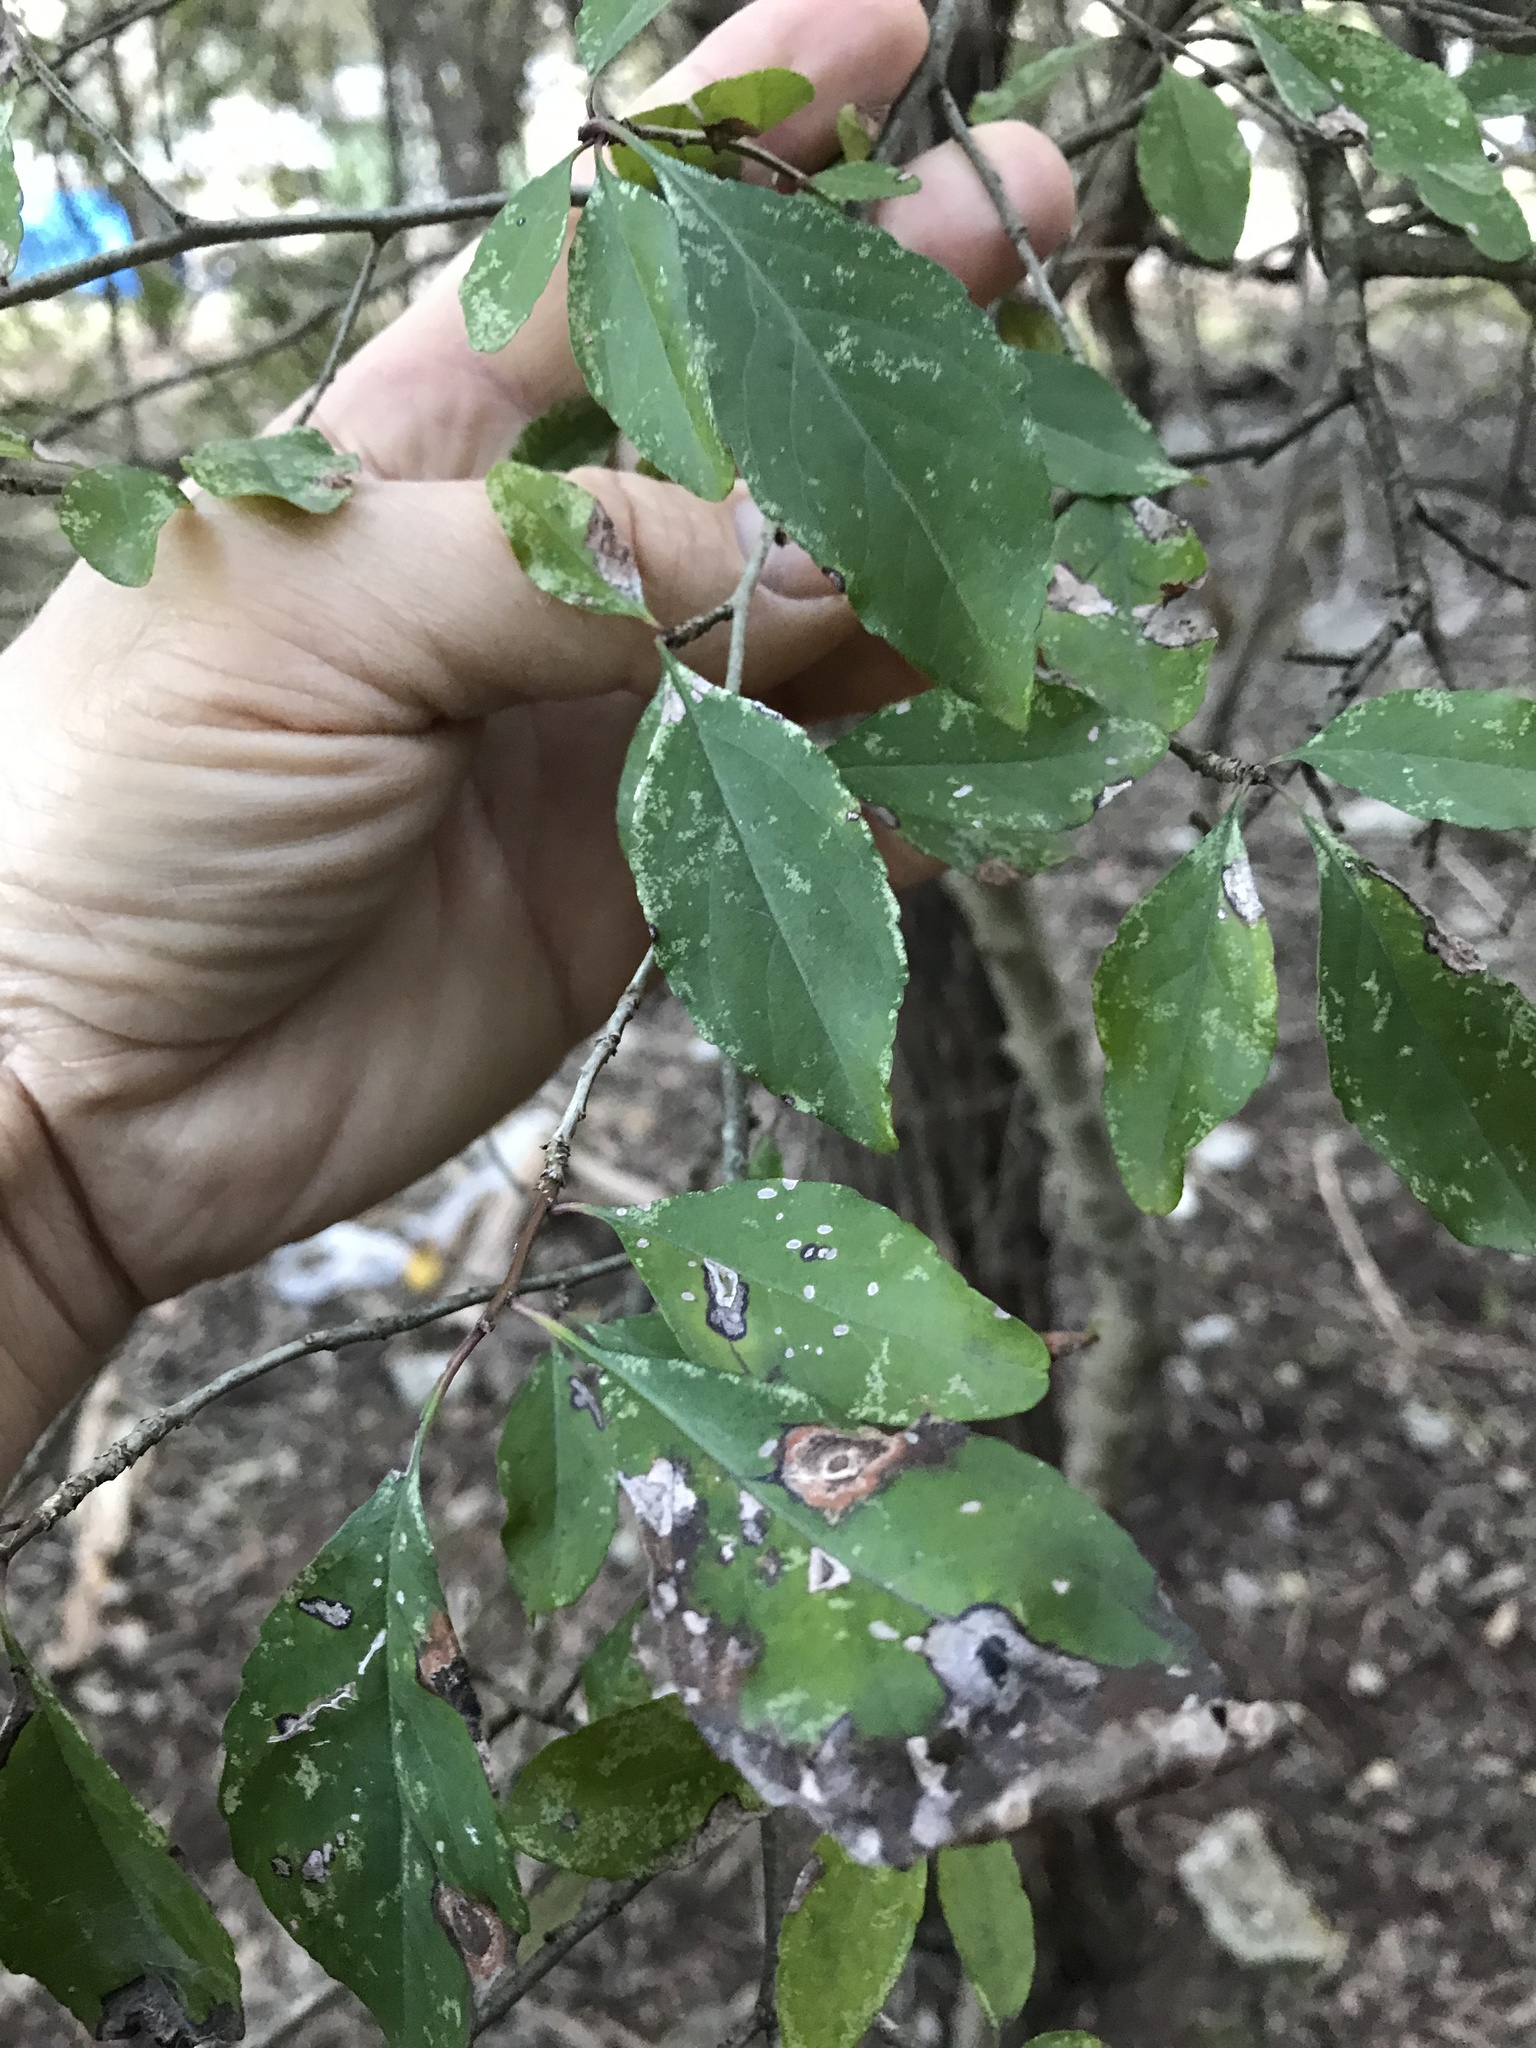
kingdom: Plantae
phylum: Tracheophyta
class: Magnoliopsida
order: Aquifoliales
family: Aquifoliaceae
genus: Ilex
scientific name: Ilex decidua
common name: Possum-haw
